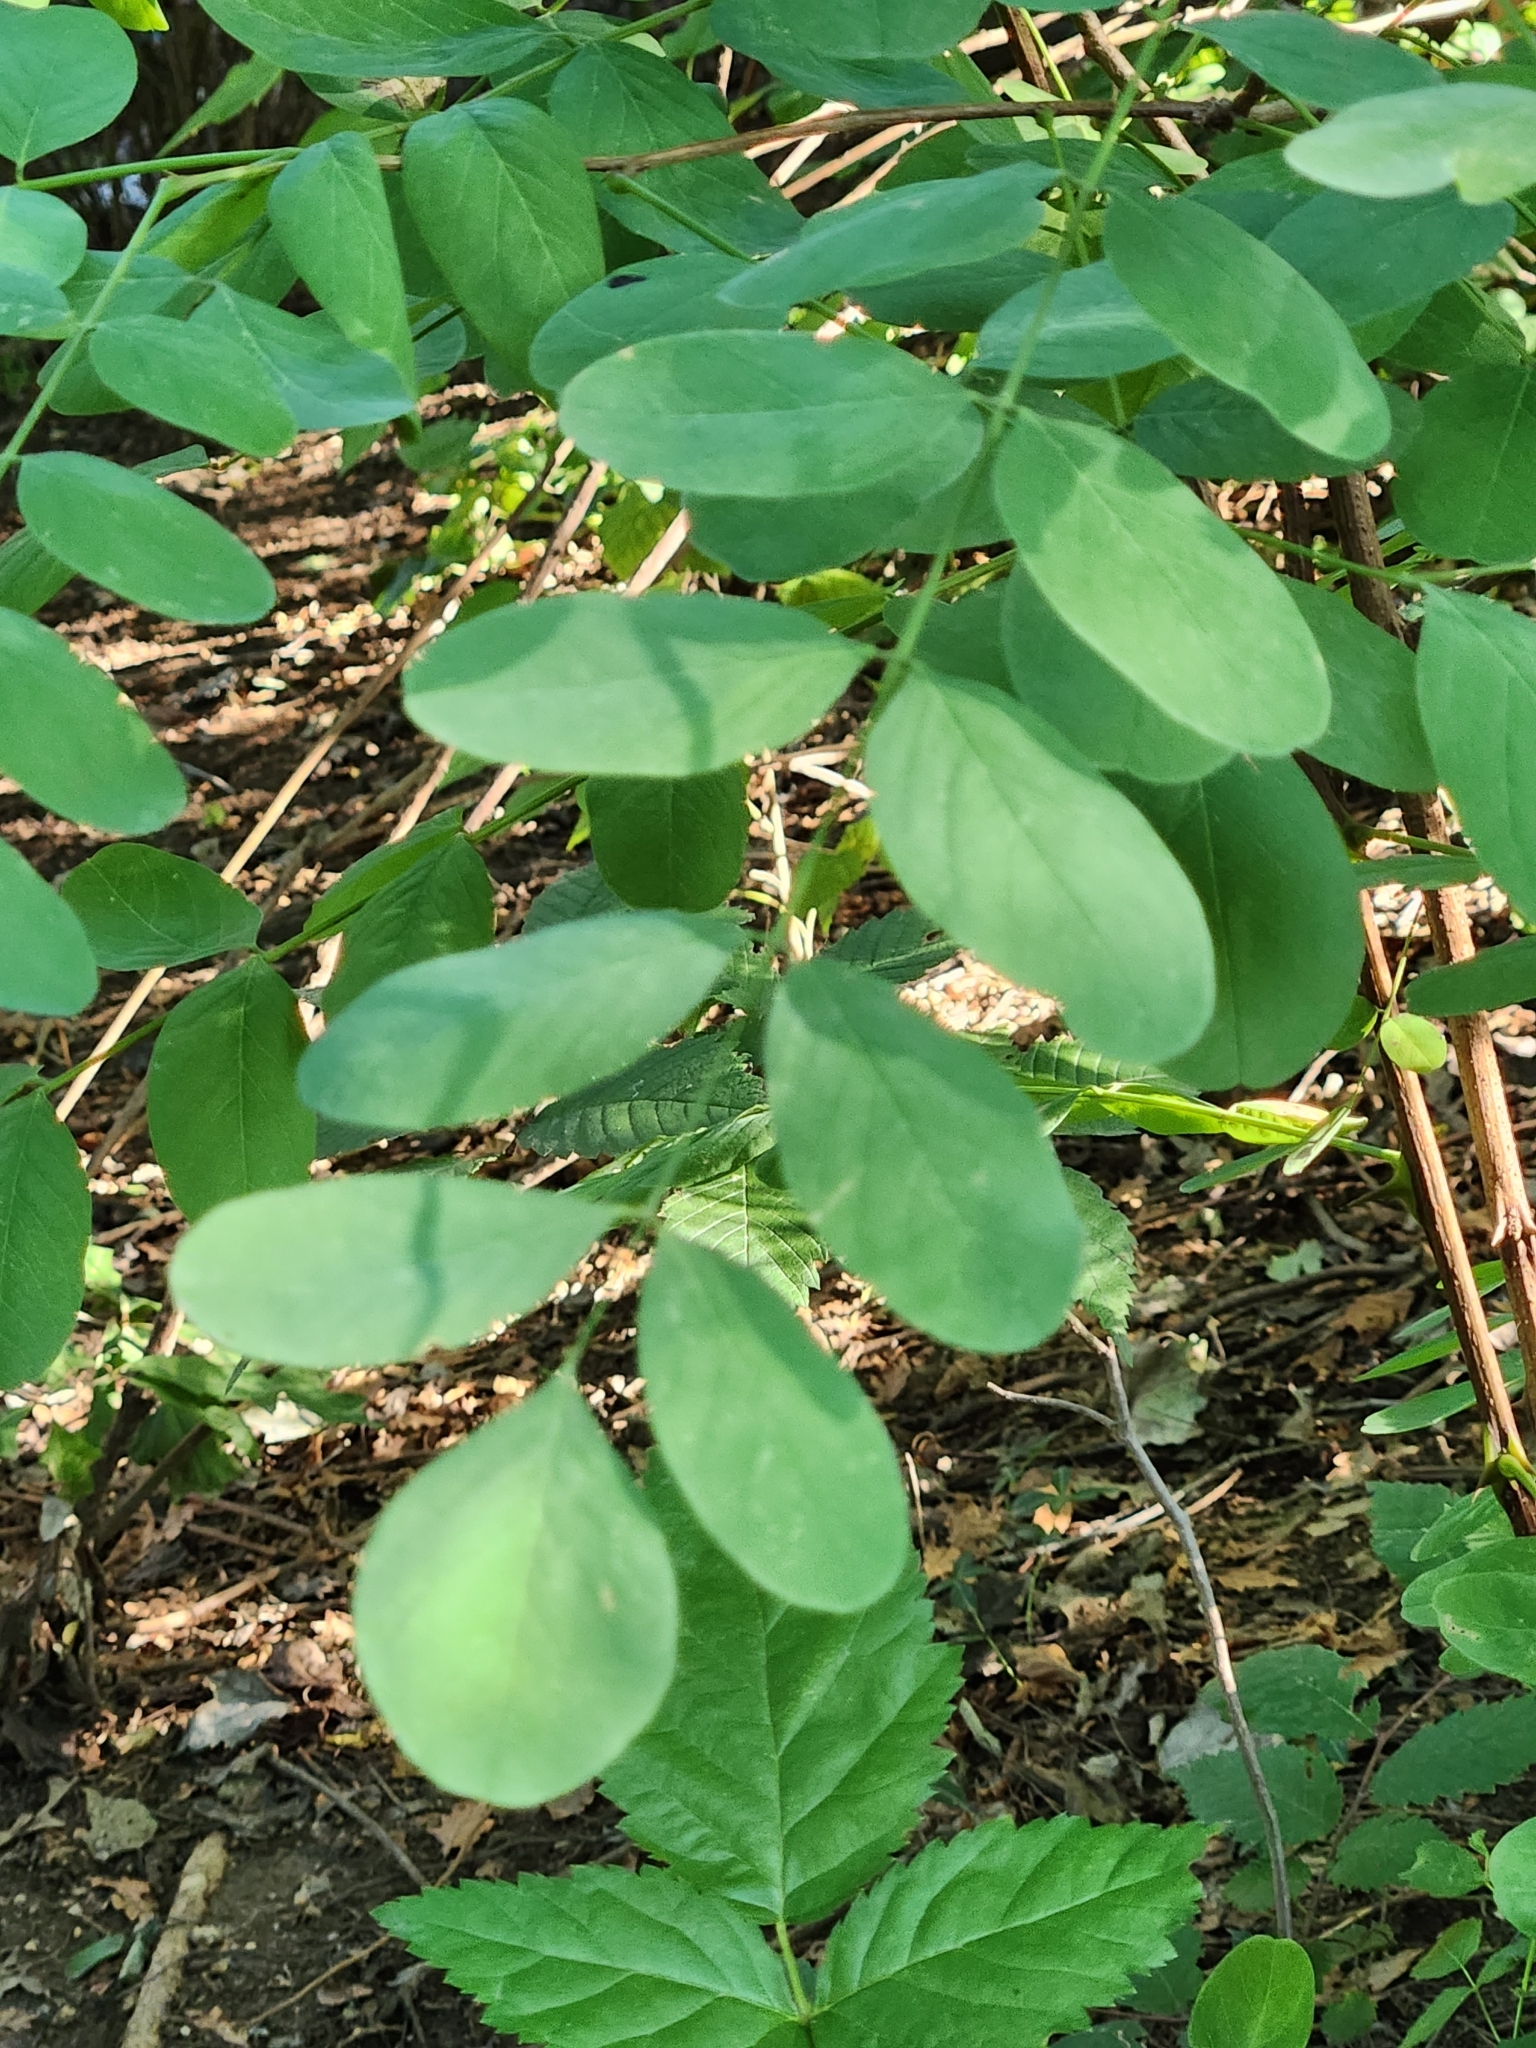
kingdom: Plantae
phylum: Tracheophyta
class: Magnoliopsida
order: Fabales
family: Fabaceae
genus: Robinia
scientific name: Robinia pseudoacacia
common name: Black locust
